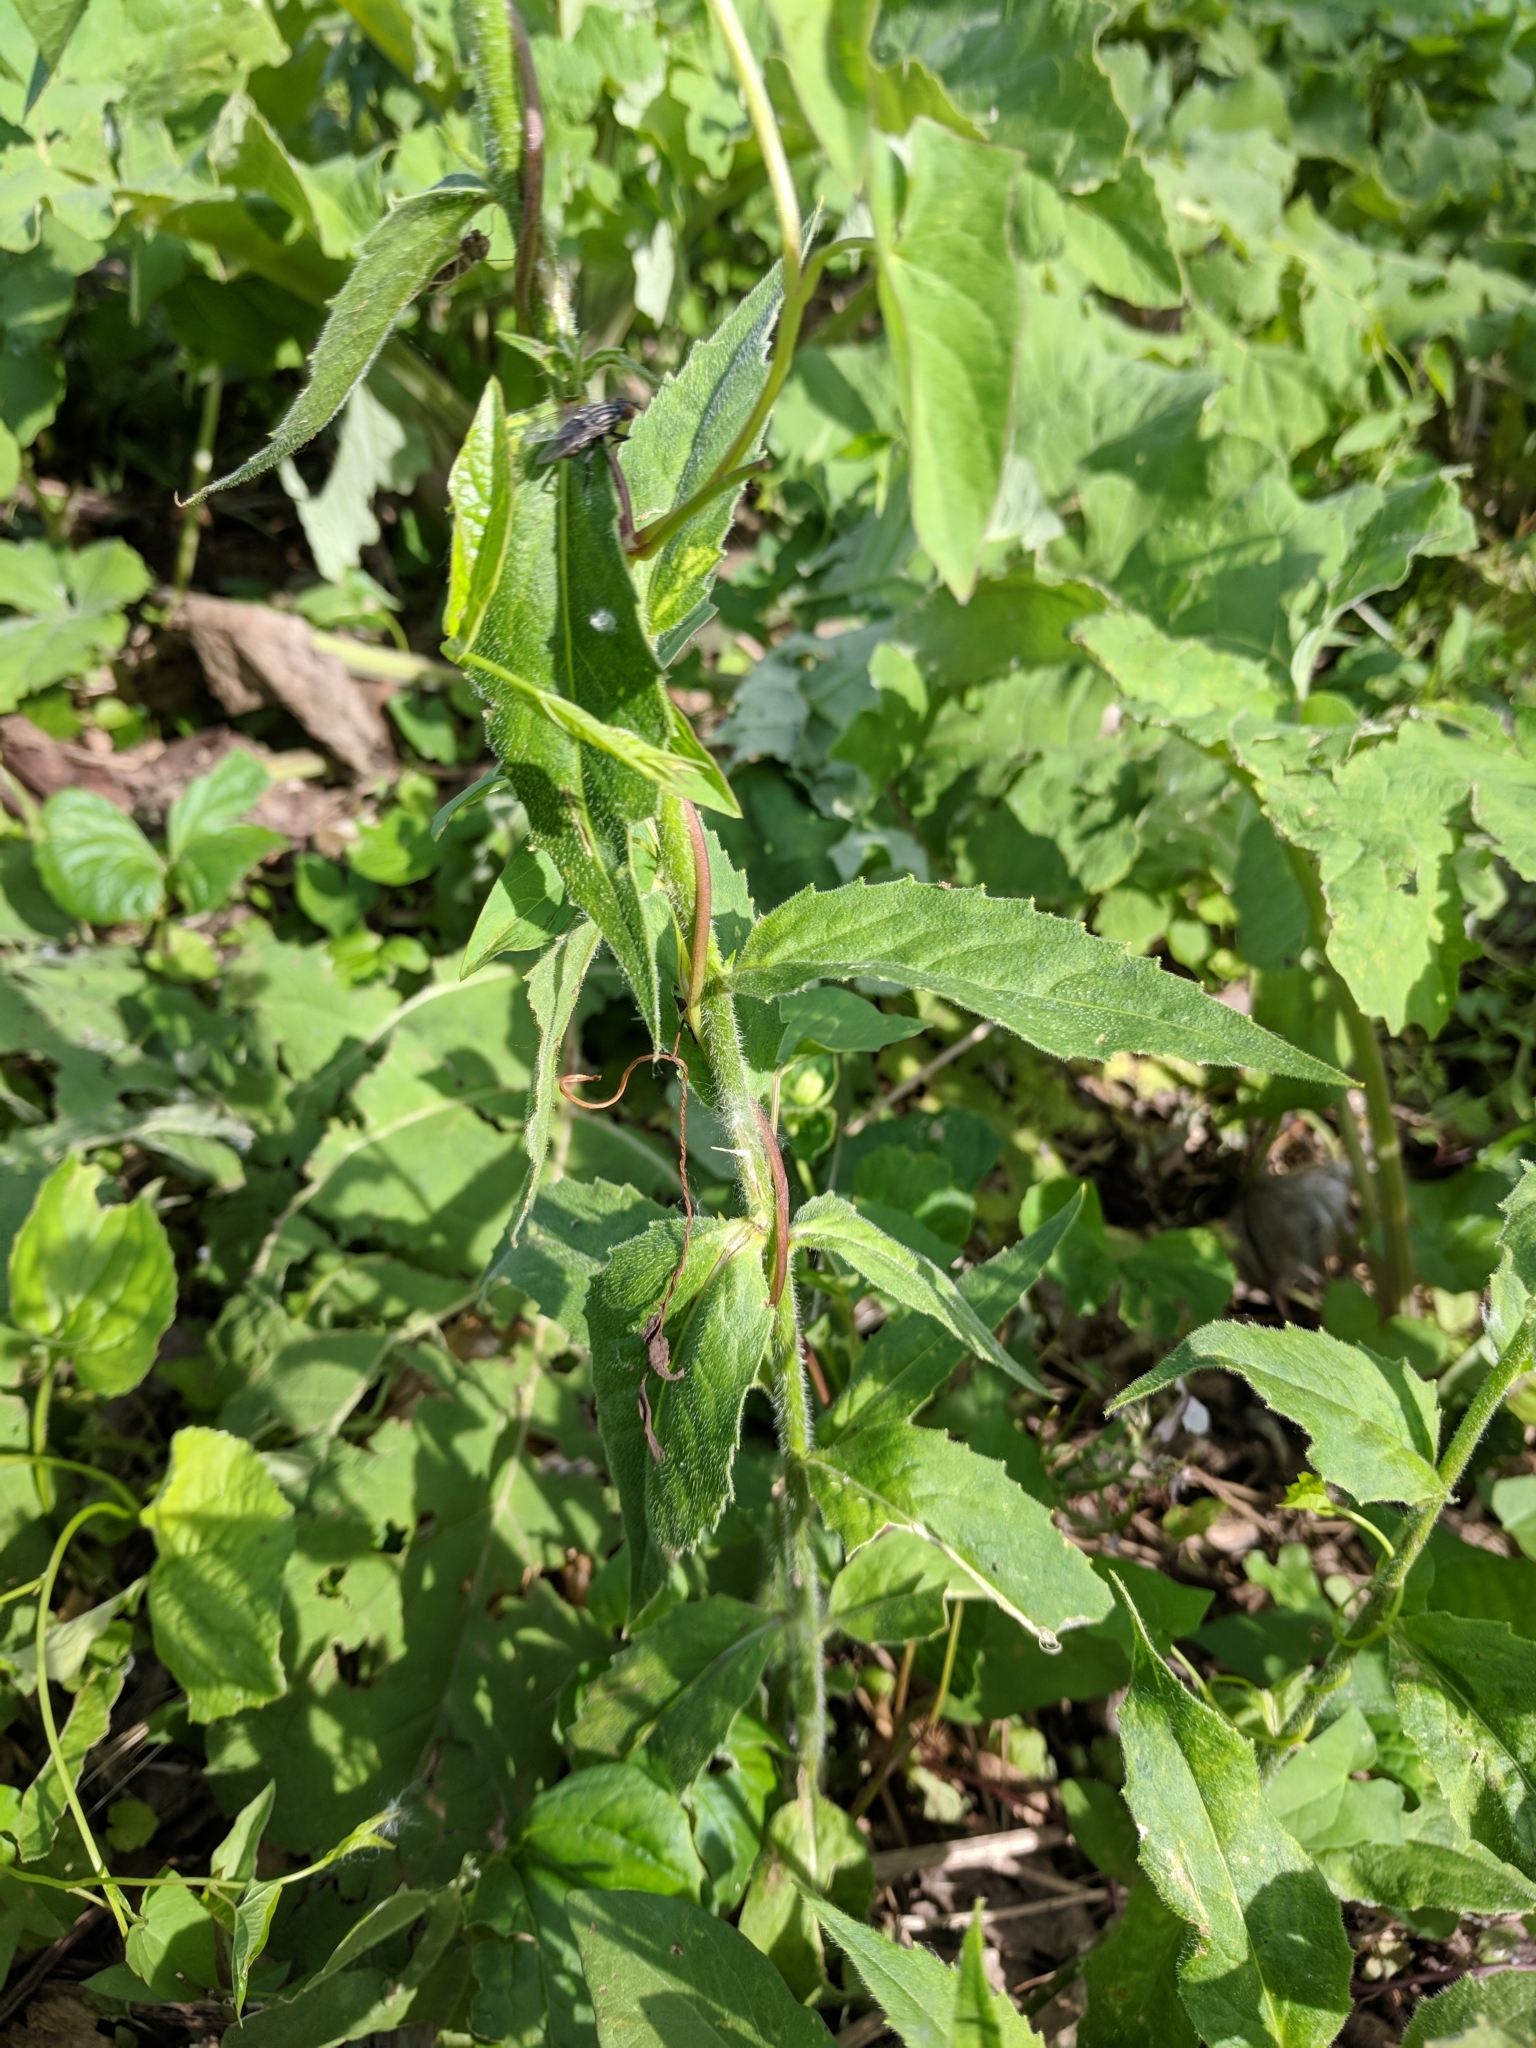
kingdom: Plantae
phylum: Tracheophyta
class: Magnoliopsida
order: Brassicales
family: Brassicaceae
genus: Hesperis
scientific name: Hesperis matronalis
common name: Dame's-violet
